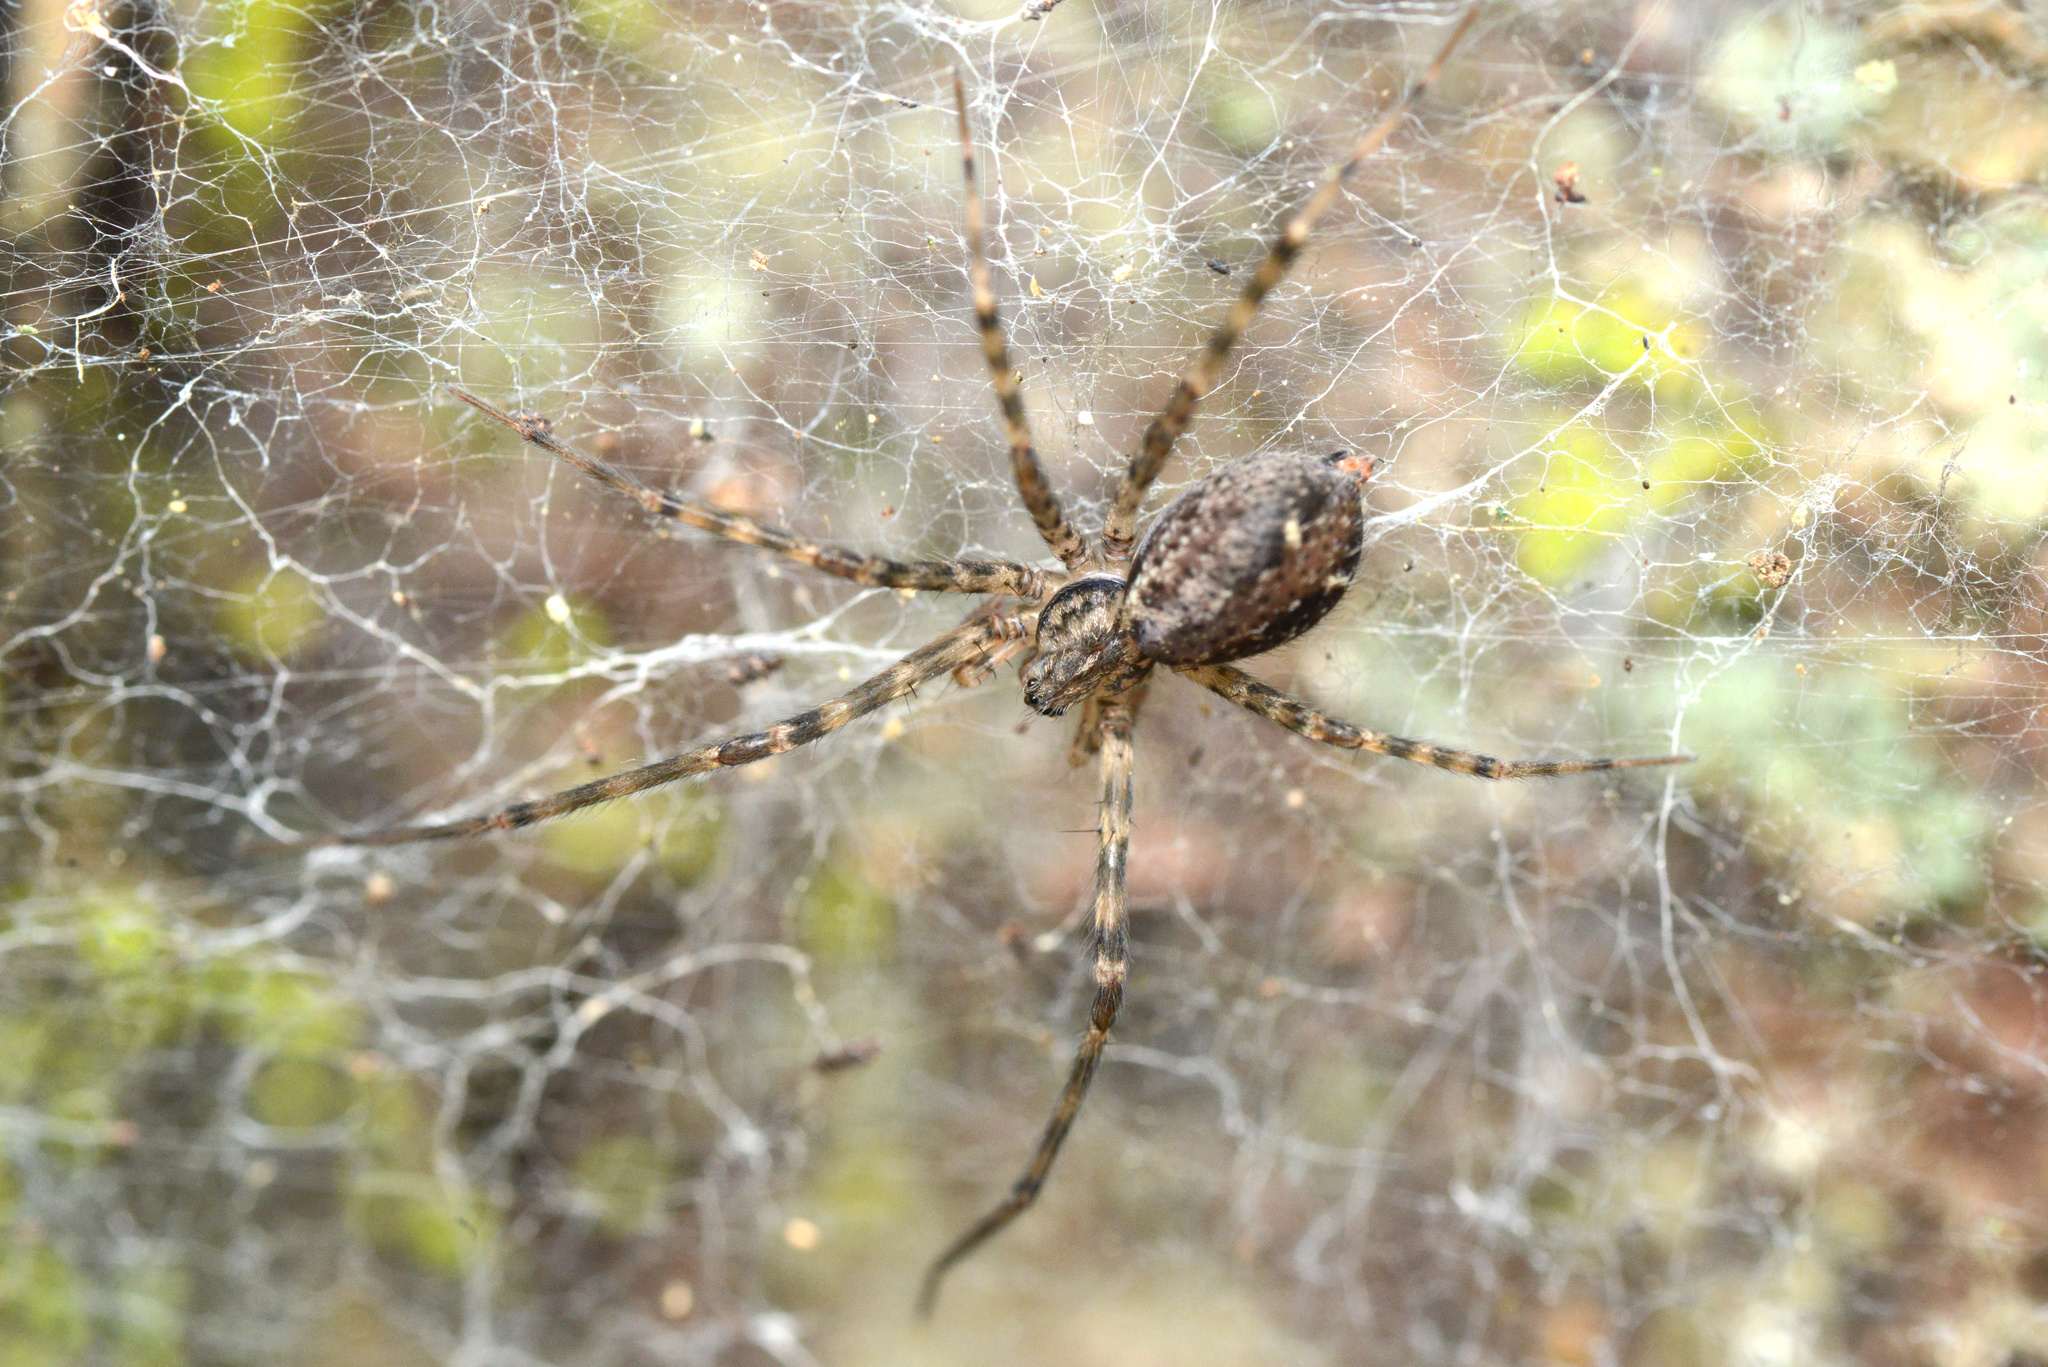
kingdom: Animalia
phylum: Arthropoda
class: Arachnida
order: Araneae
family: Stiphidiidae
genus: Stiphidion
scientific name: Stiphidion facetum
